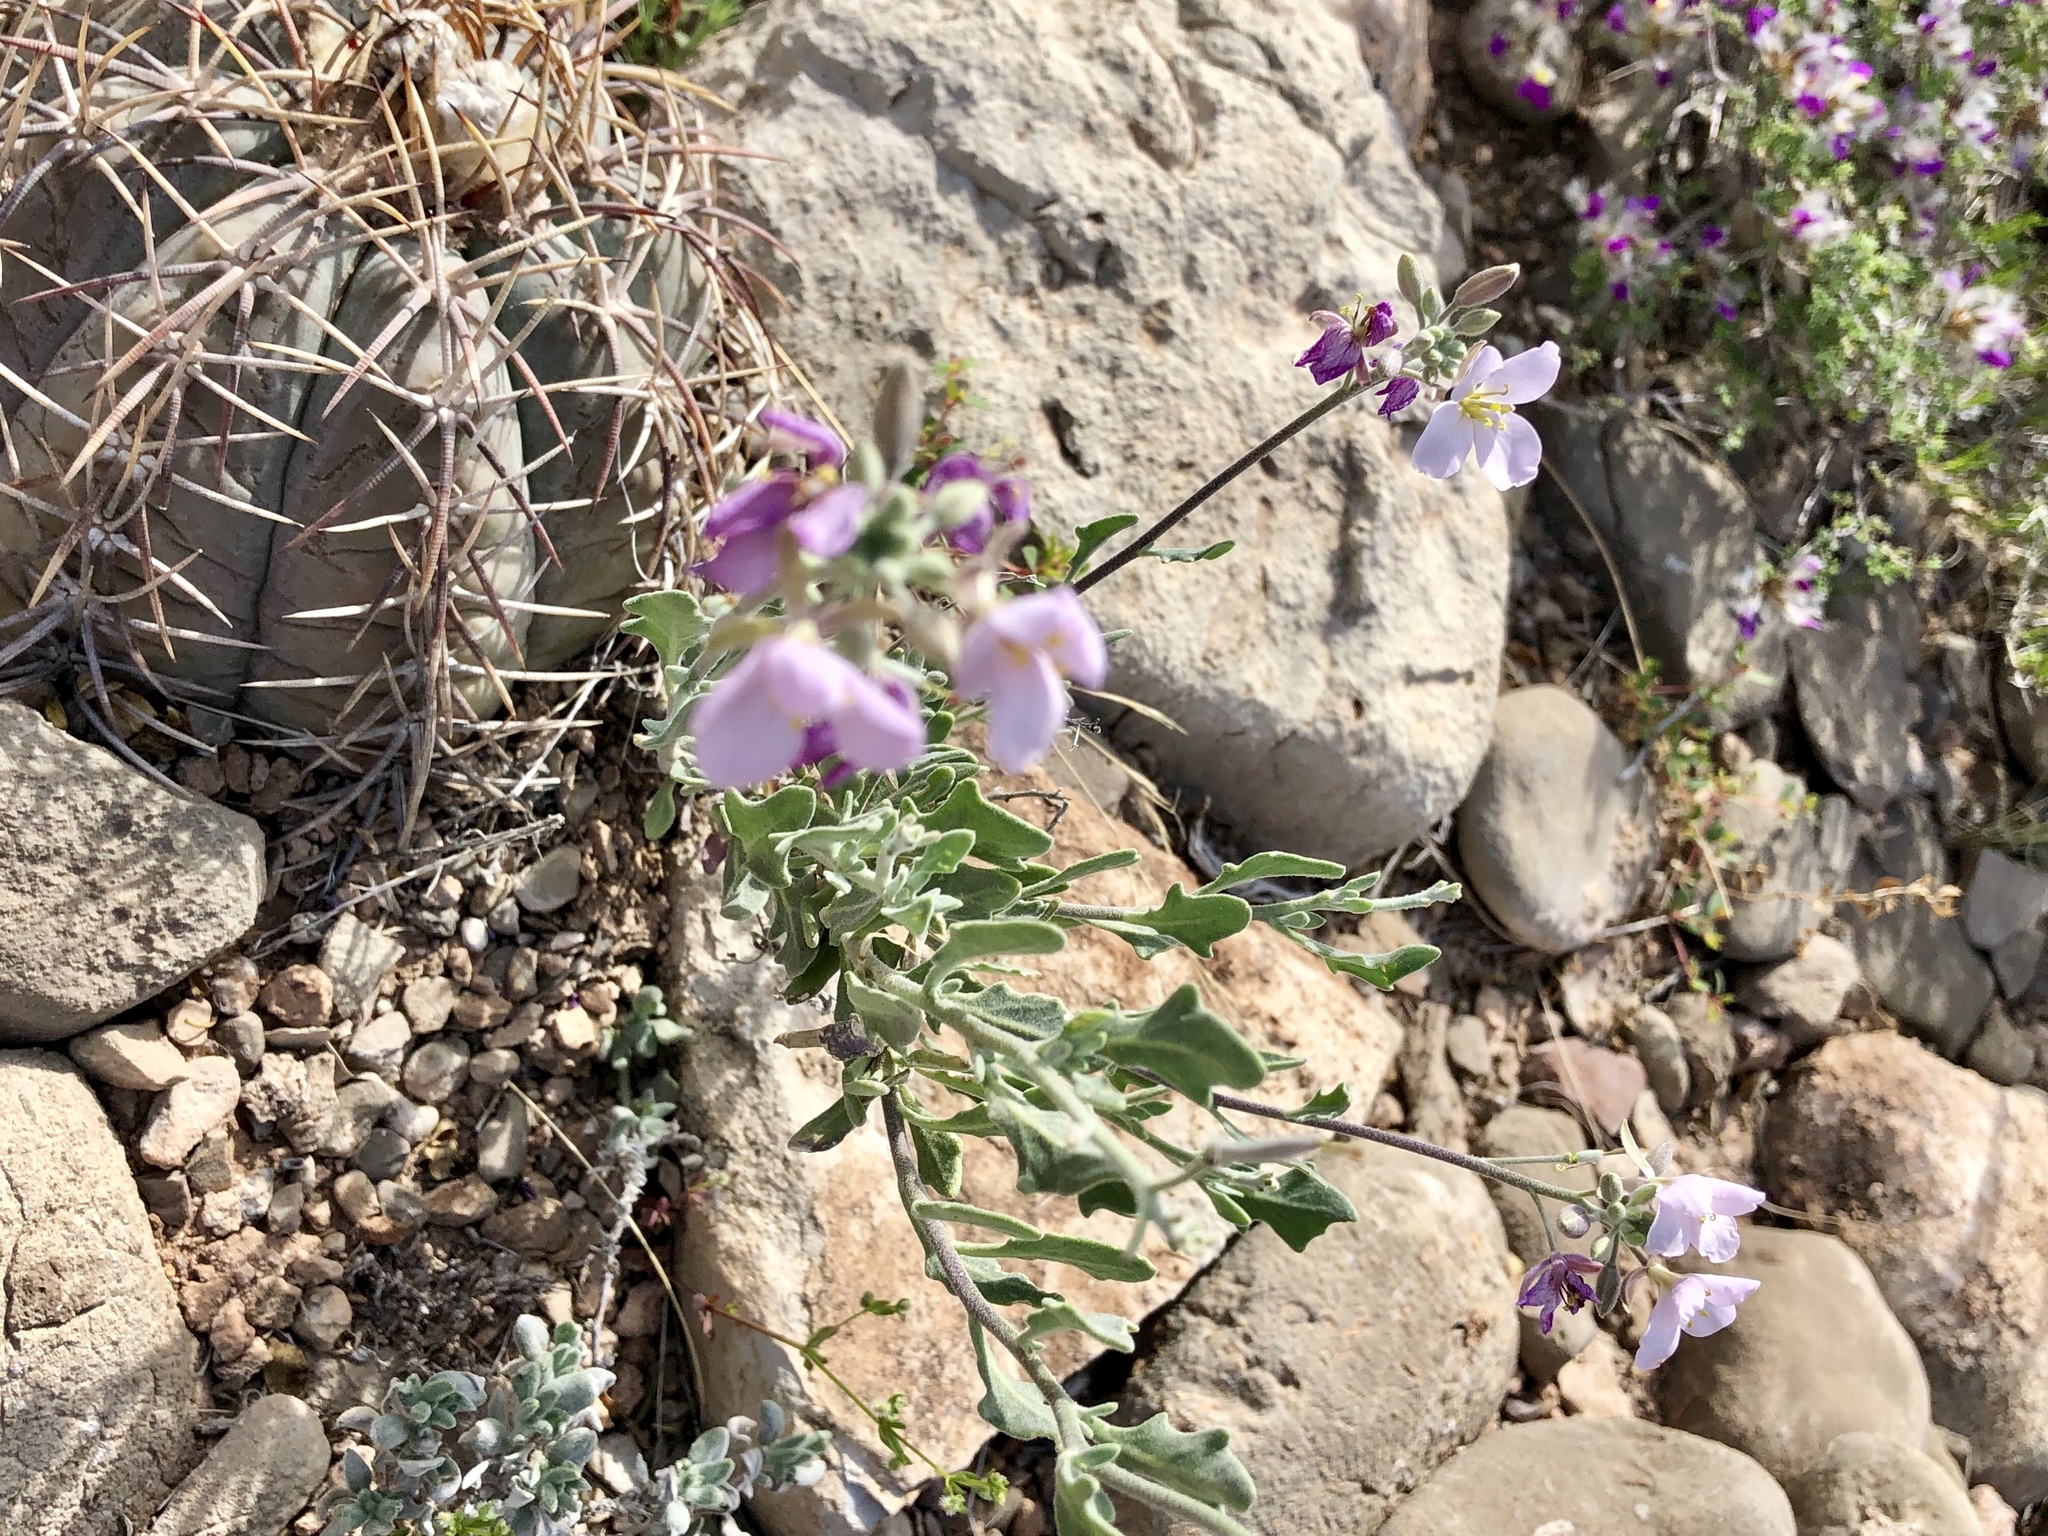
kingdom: Plantae
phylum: Tracheophyta
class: Magnoliopsida
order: Brassicales
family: Brassicaceae
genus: Nerisyrenia
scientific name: Nerisyrenia camporum
